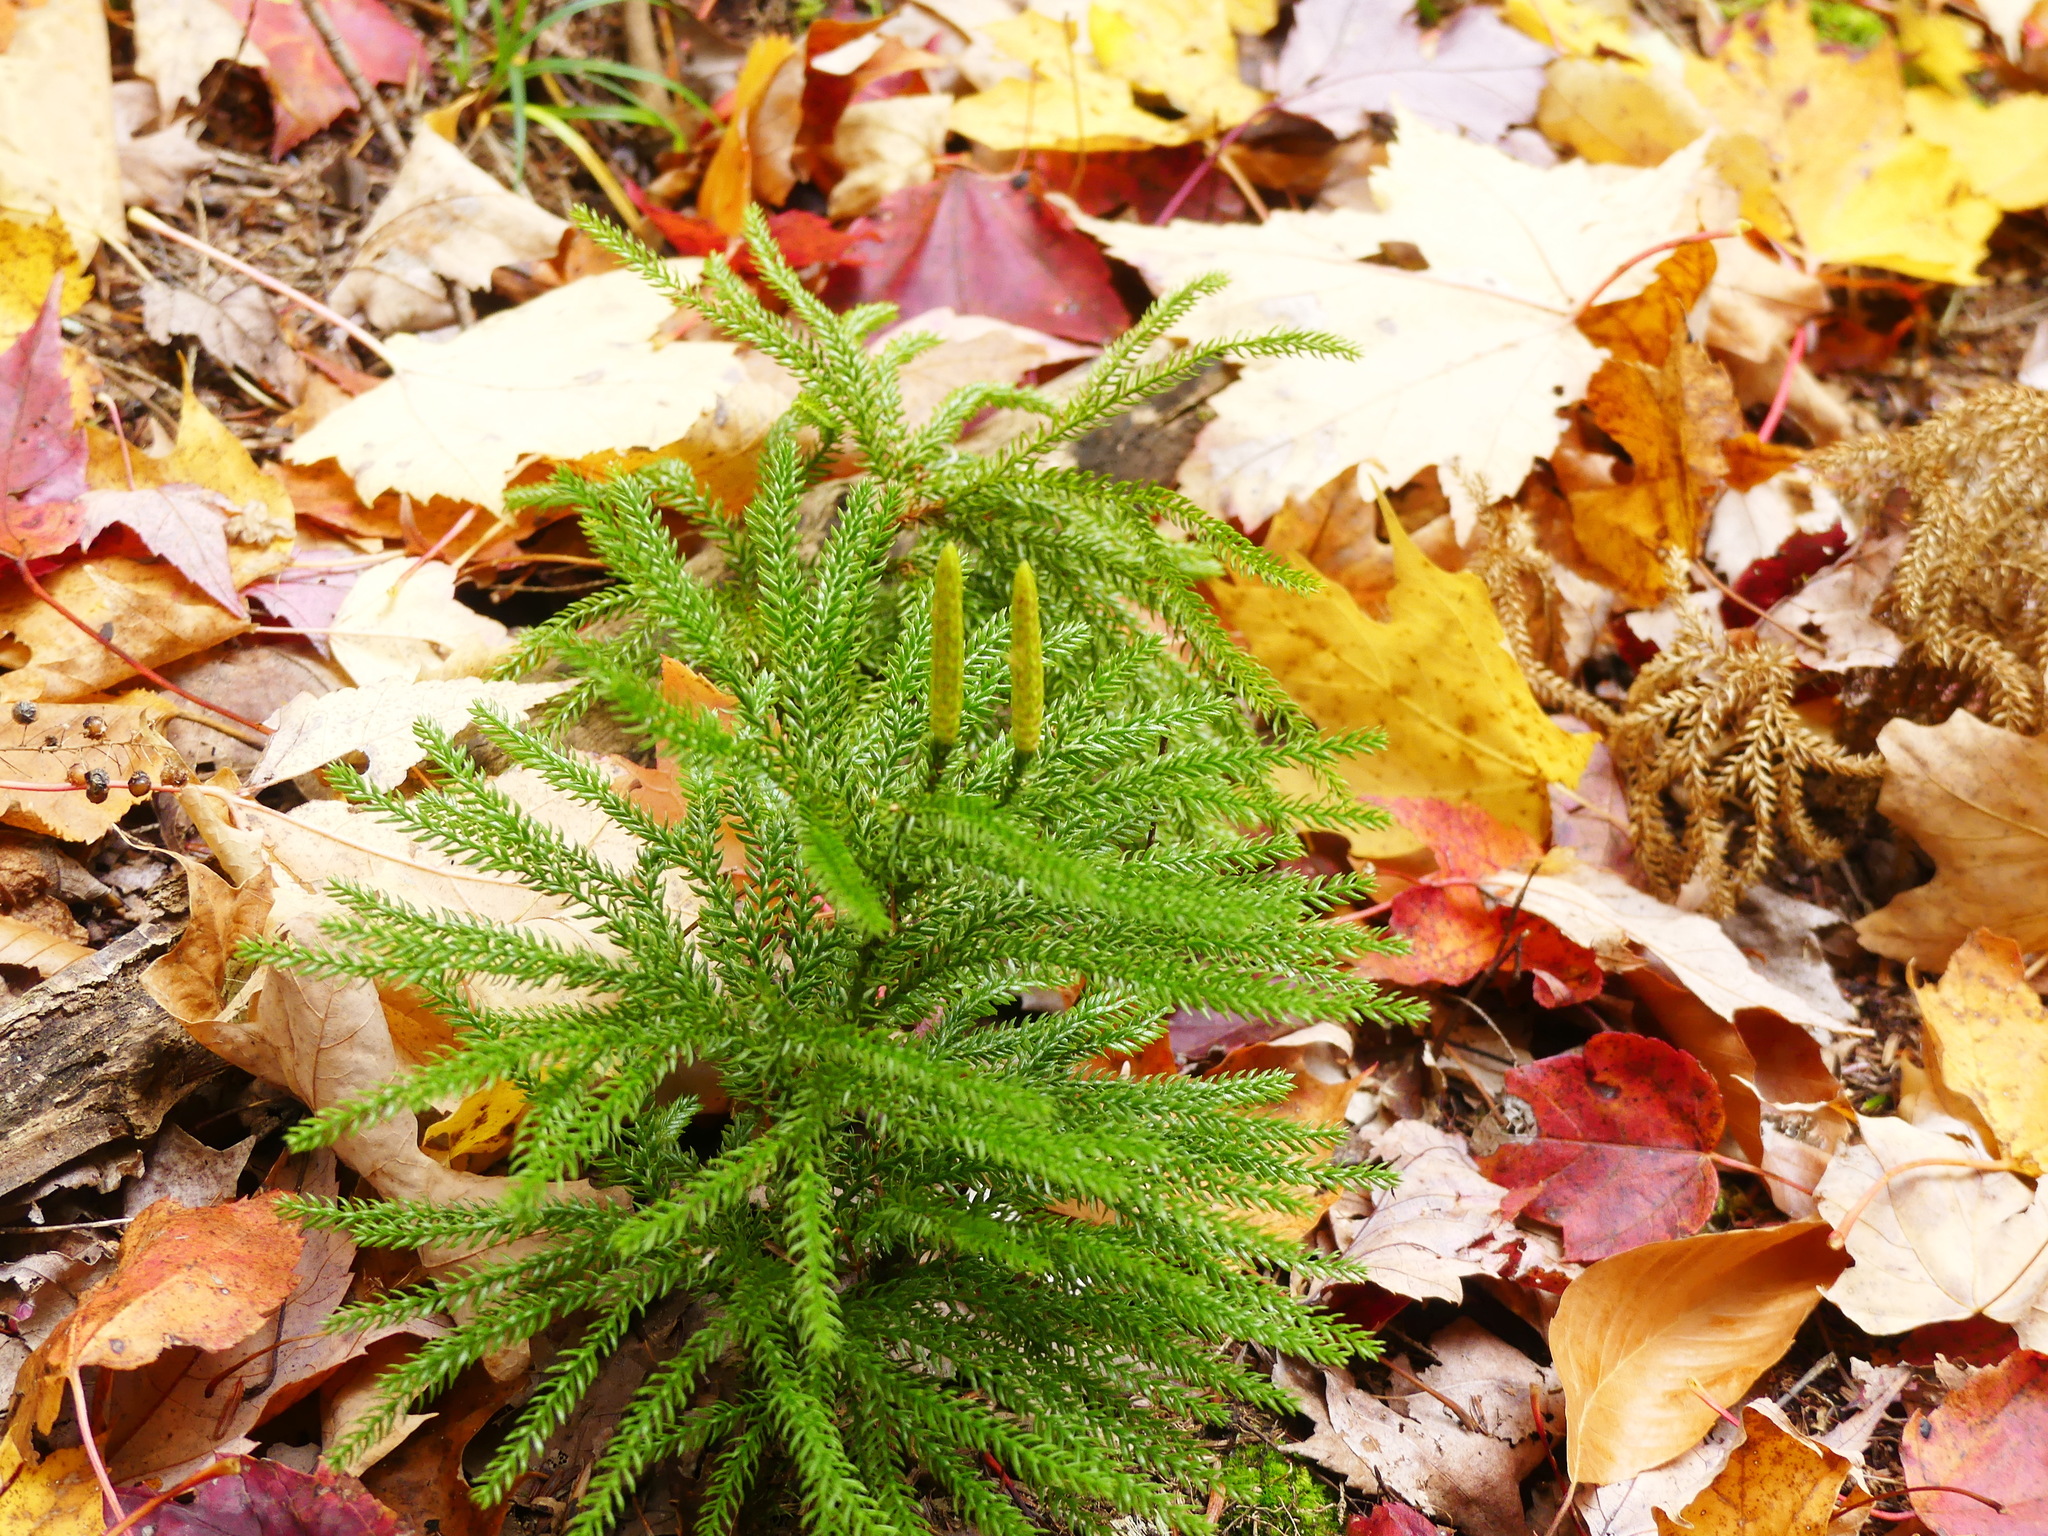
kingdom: Plantae
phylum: Tracheophyta
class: Lycopodiopsida
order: Lycopodiales
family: Lycopodiaceae
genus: Dendrolycopodium
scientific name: Dendrolycopodium dendroideum
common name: Northern tree-clubmoss
